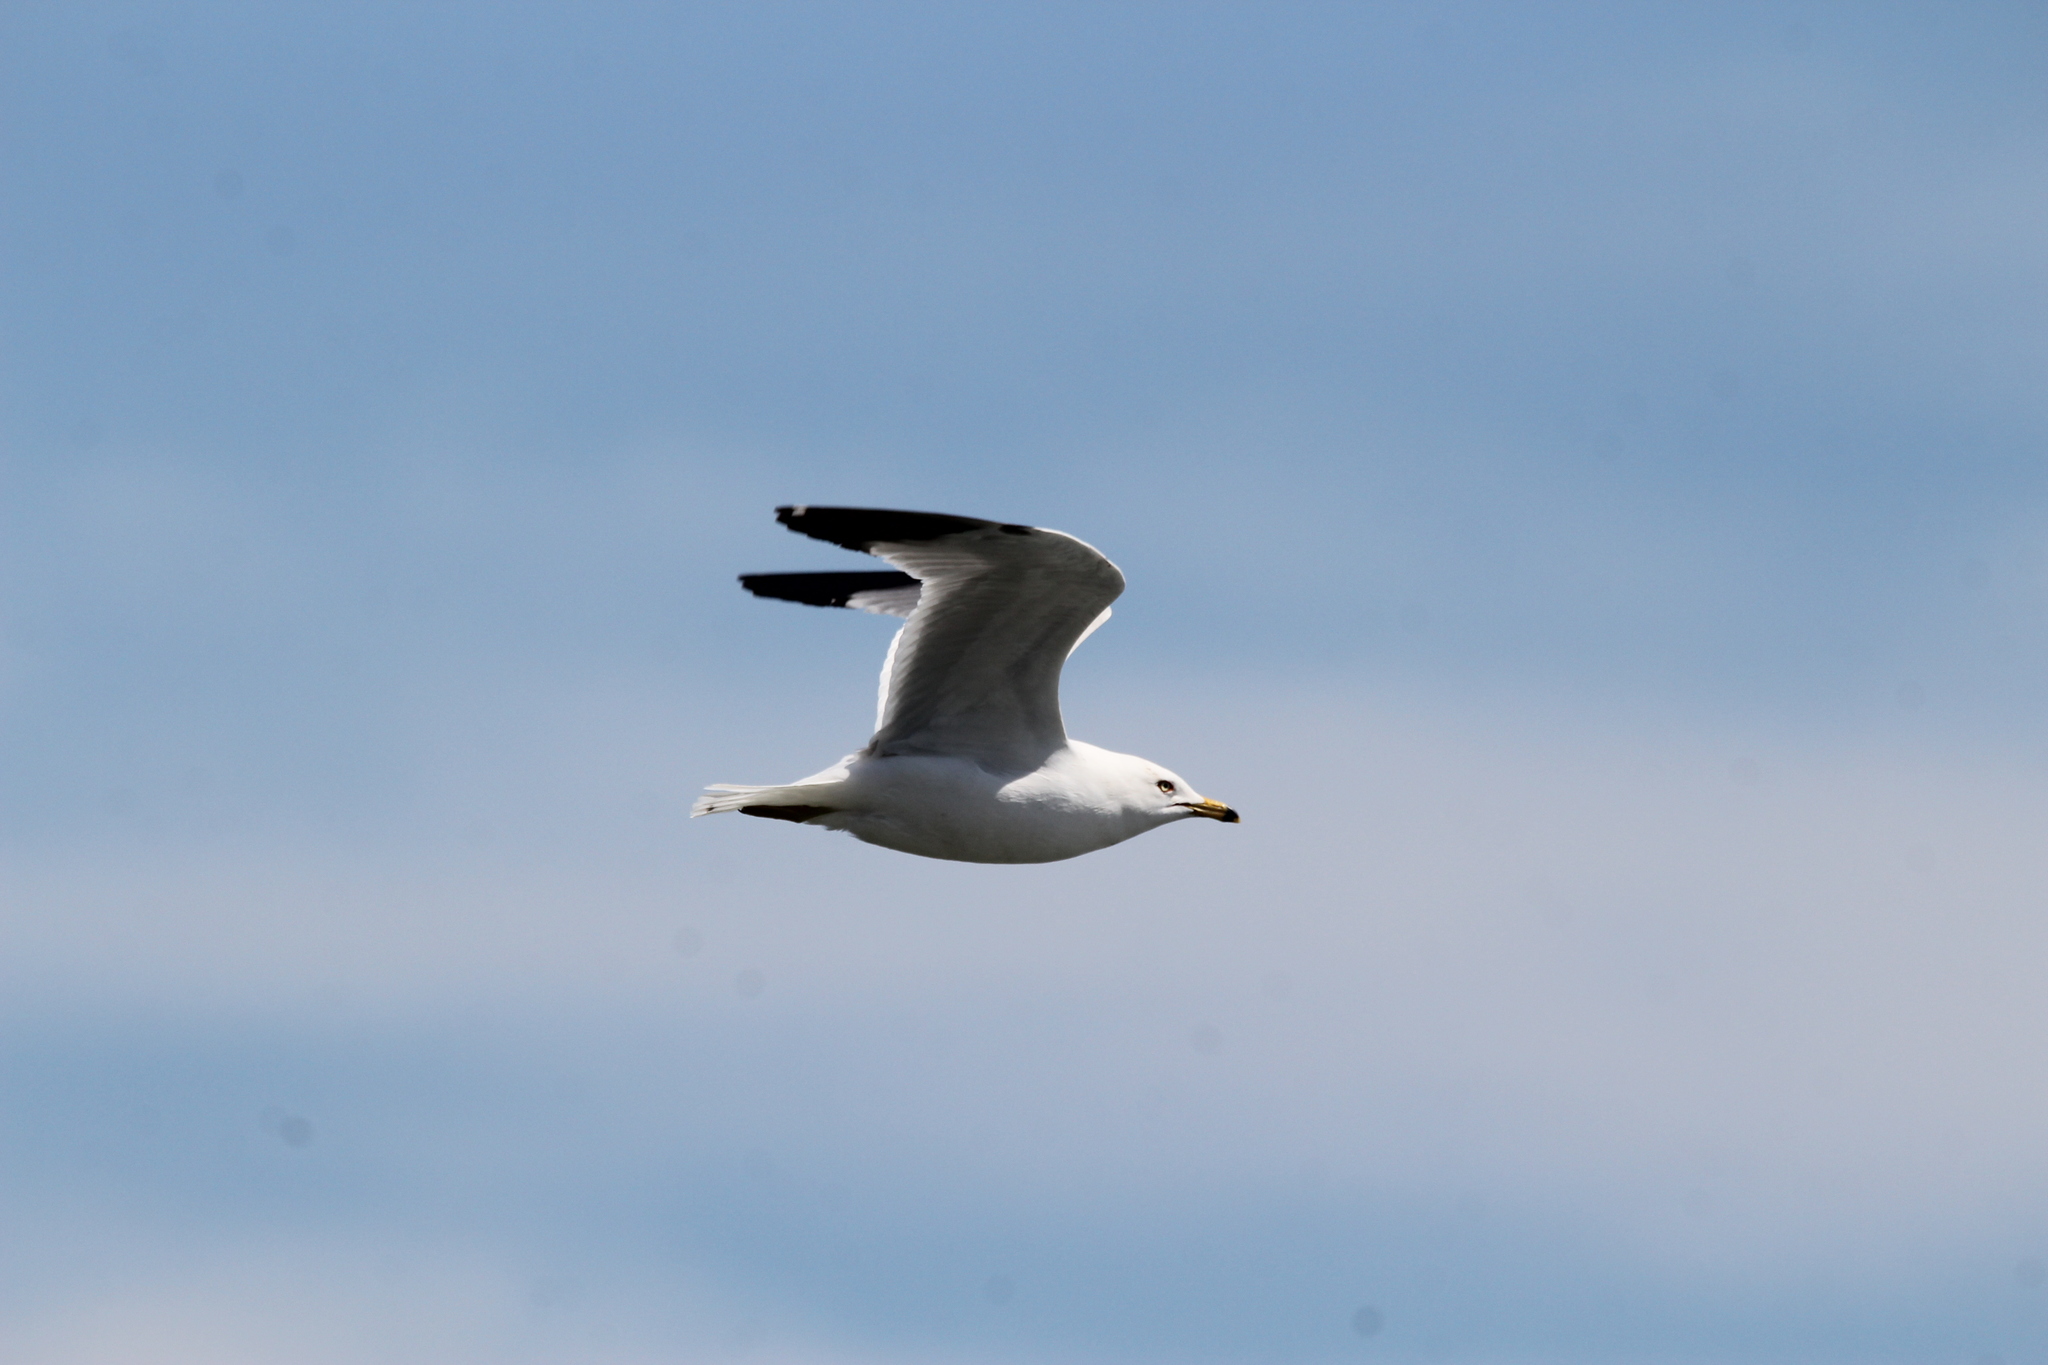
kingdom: Animalia
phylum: Chordata
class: Aves
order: Charadriiformes
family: Laridae
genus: Larus
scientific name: Larus delawarensis
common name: Ring-billed gull
